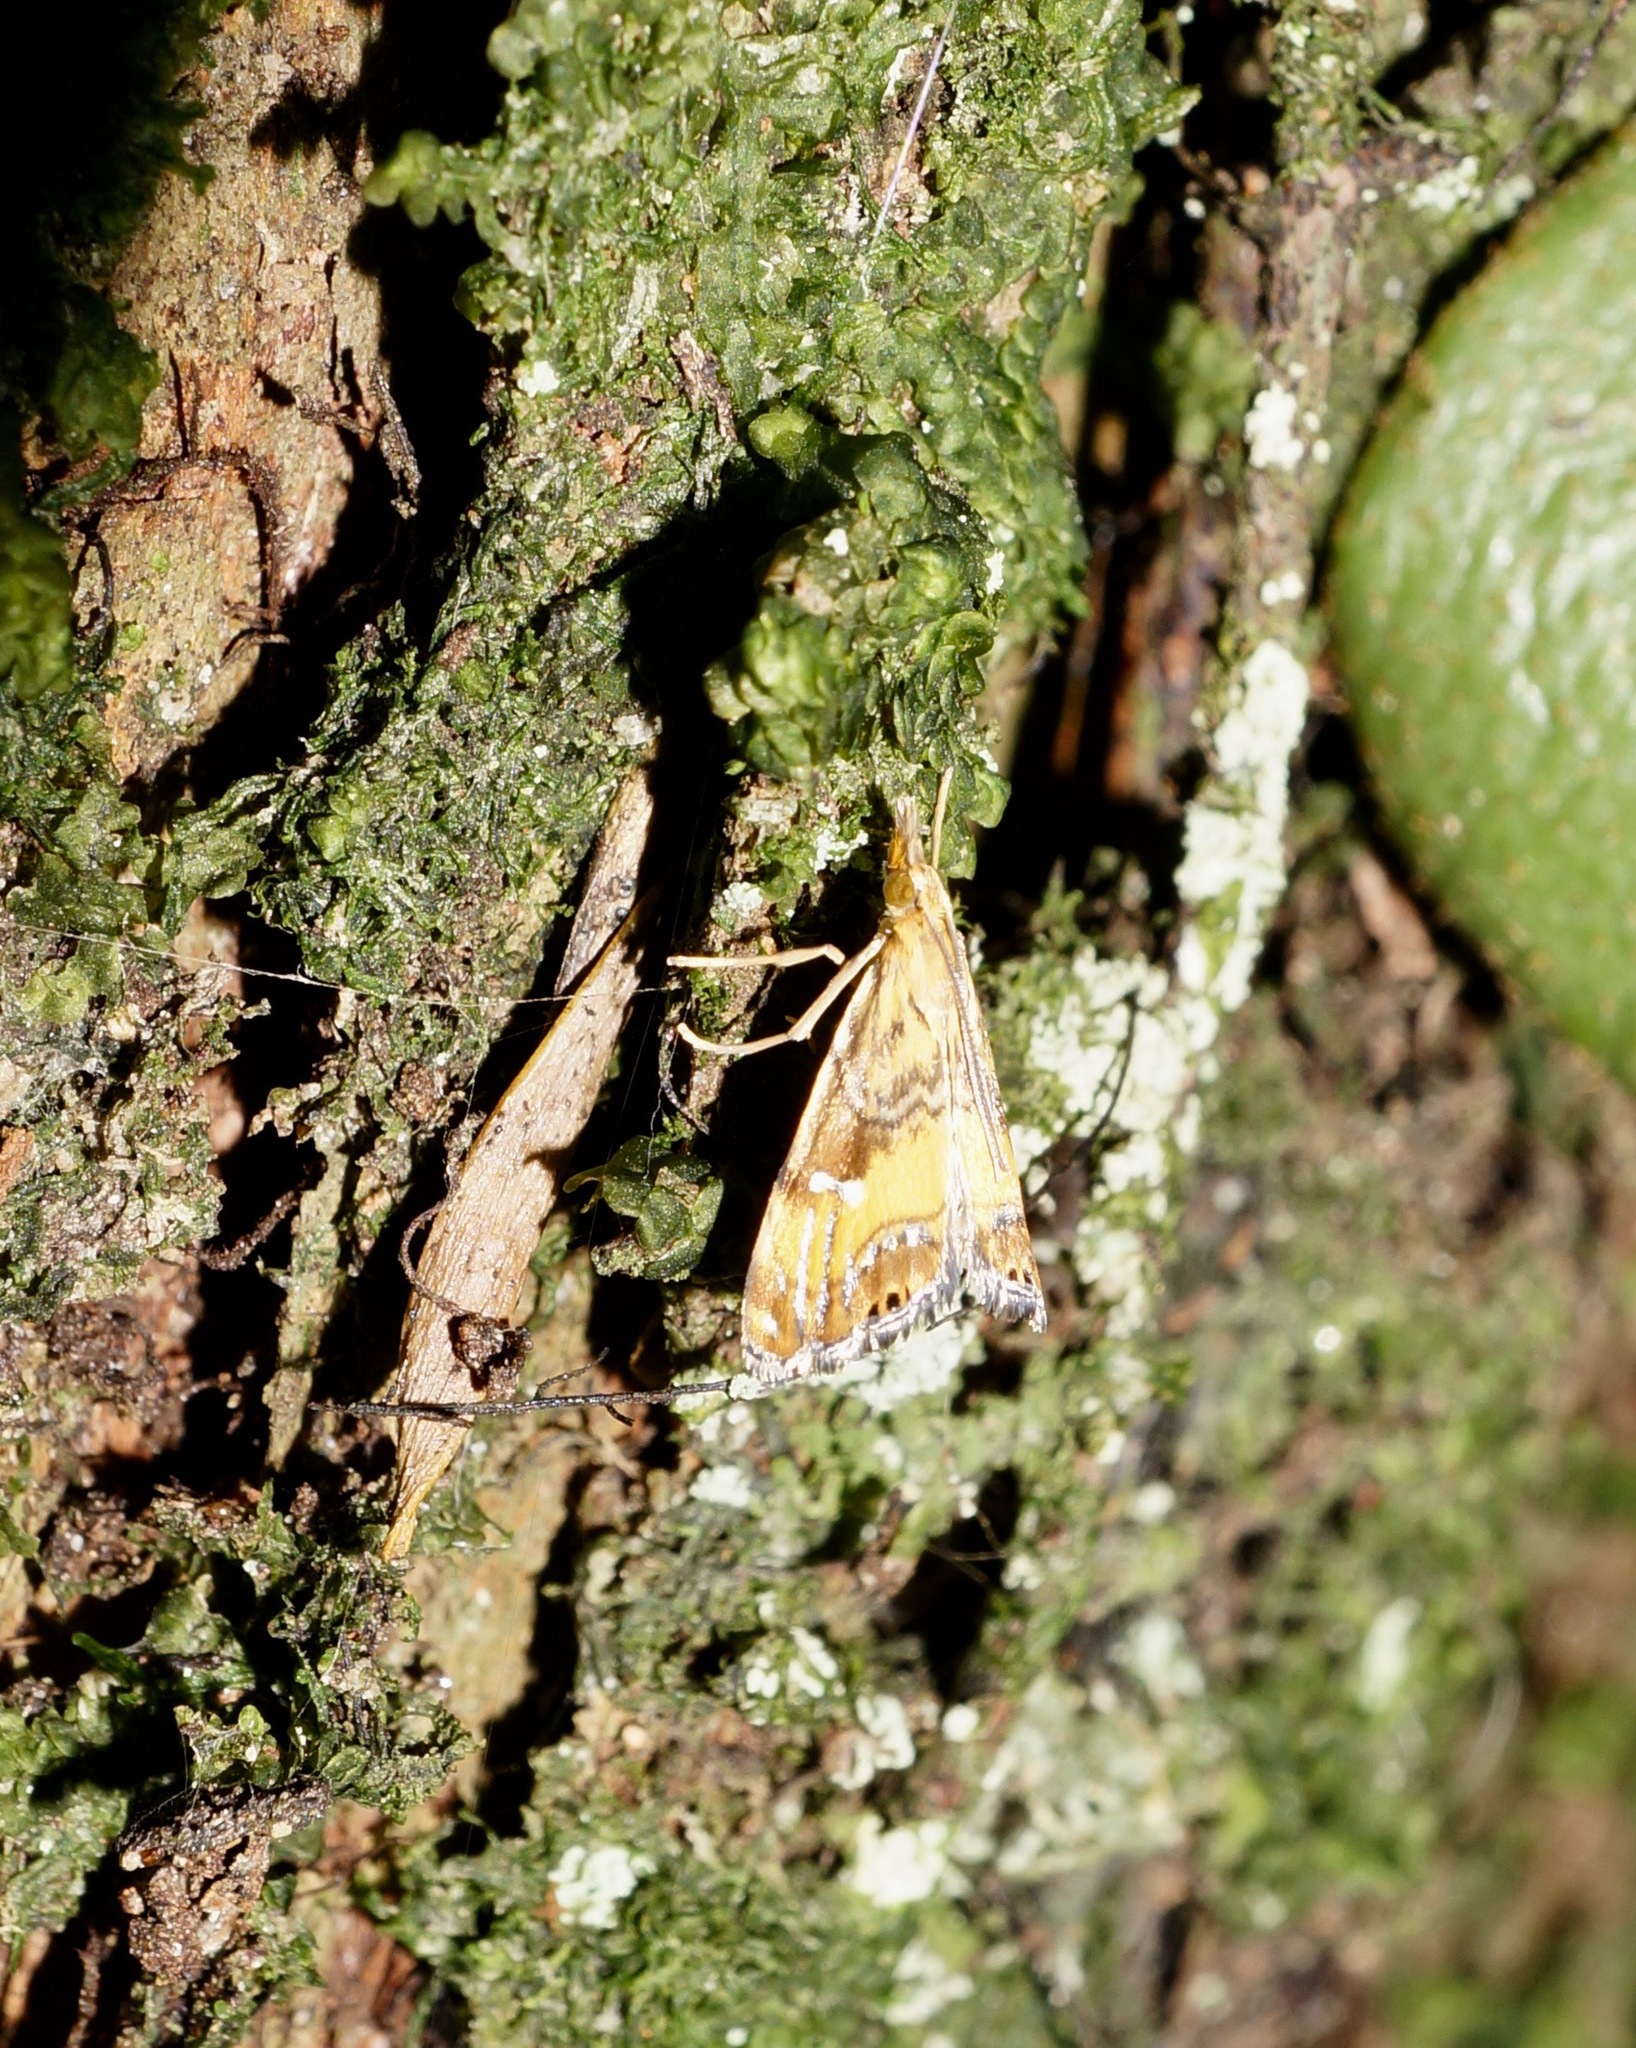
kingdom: Animalia
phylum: Arthropoda
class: Insecta
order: Lepidoptera
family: Crambidae
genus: Glaucocharis
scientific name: Glaucocharis selenaea
